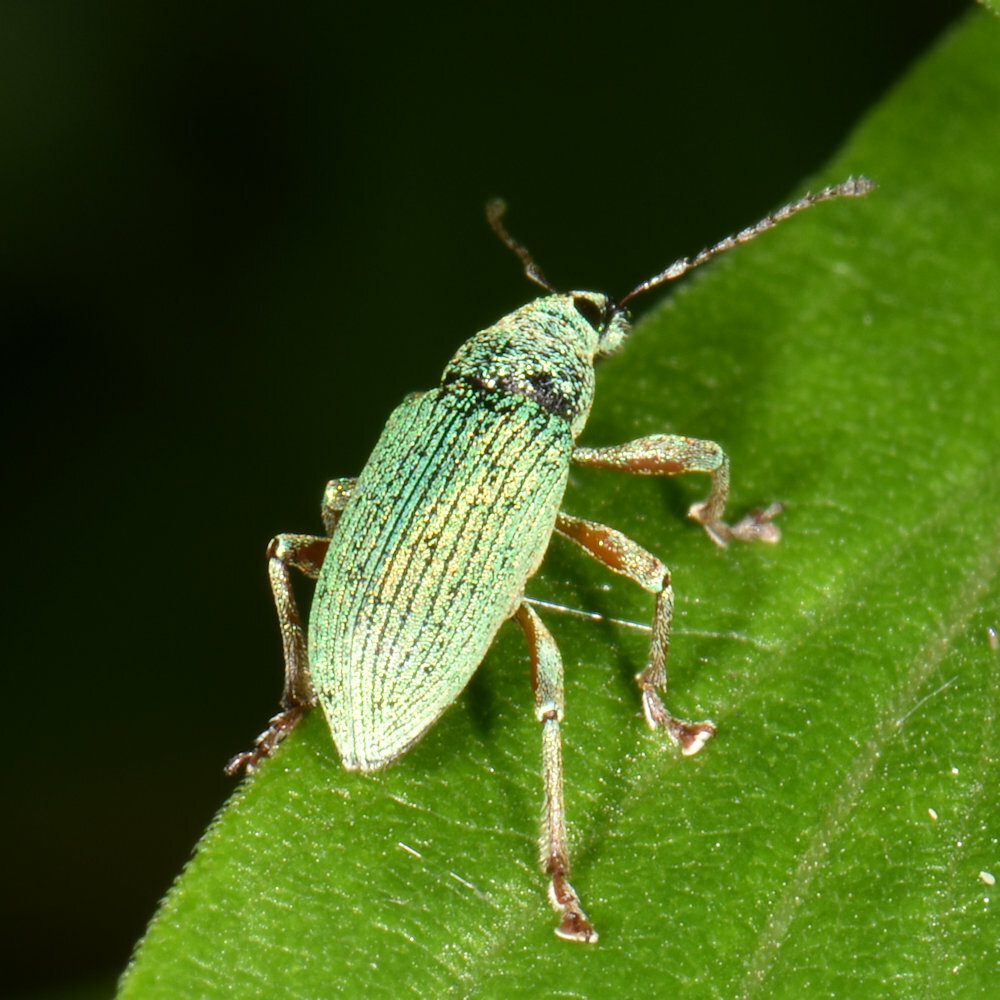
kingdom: Animalia
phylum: Arthropoda
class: Insecta
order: Coleoptera
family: Curculionidae
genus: Polydrusus
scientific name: Polydrusus formosus
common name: Weevil
